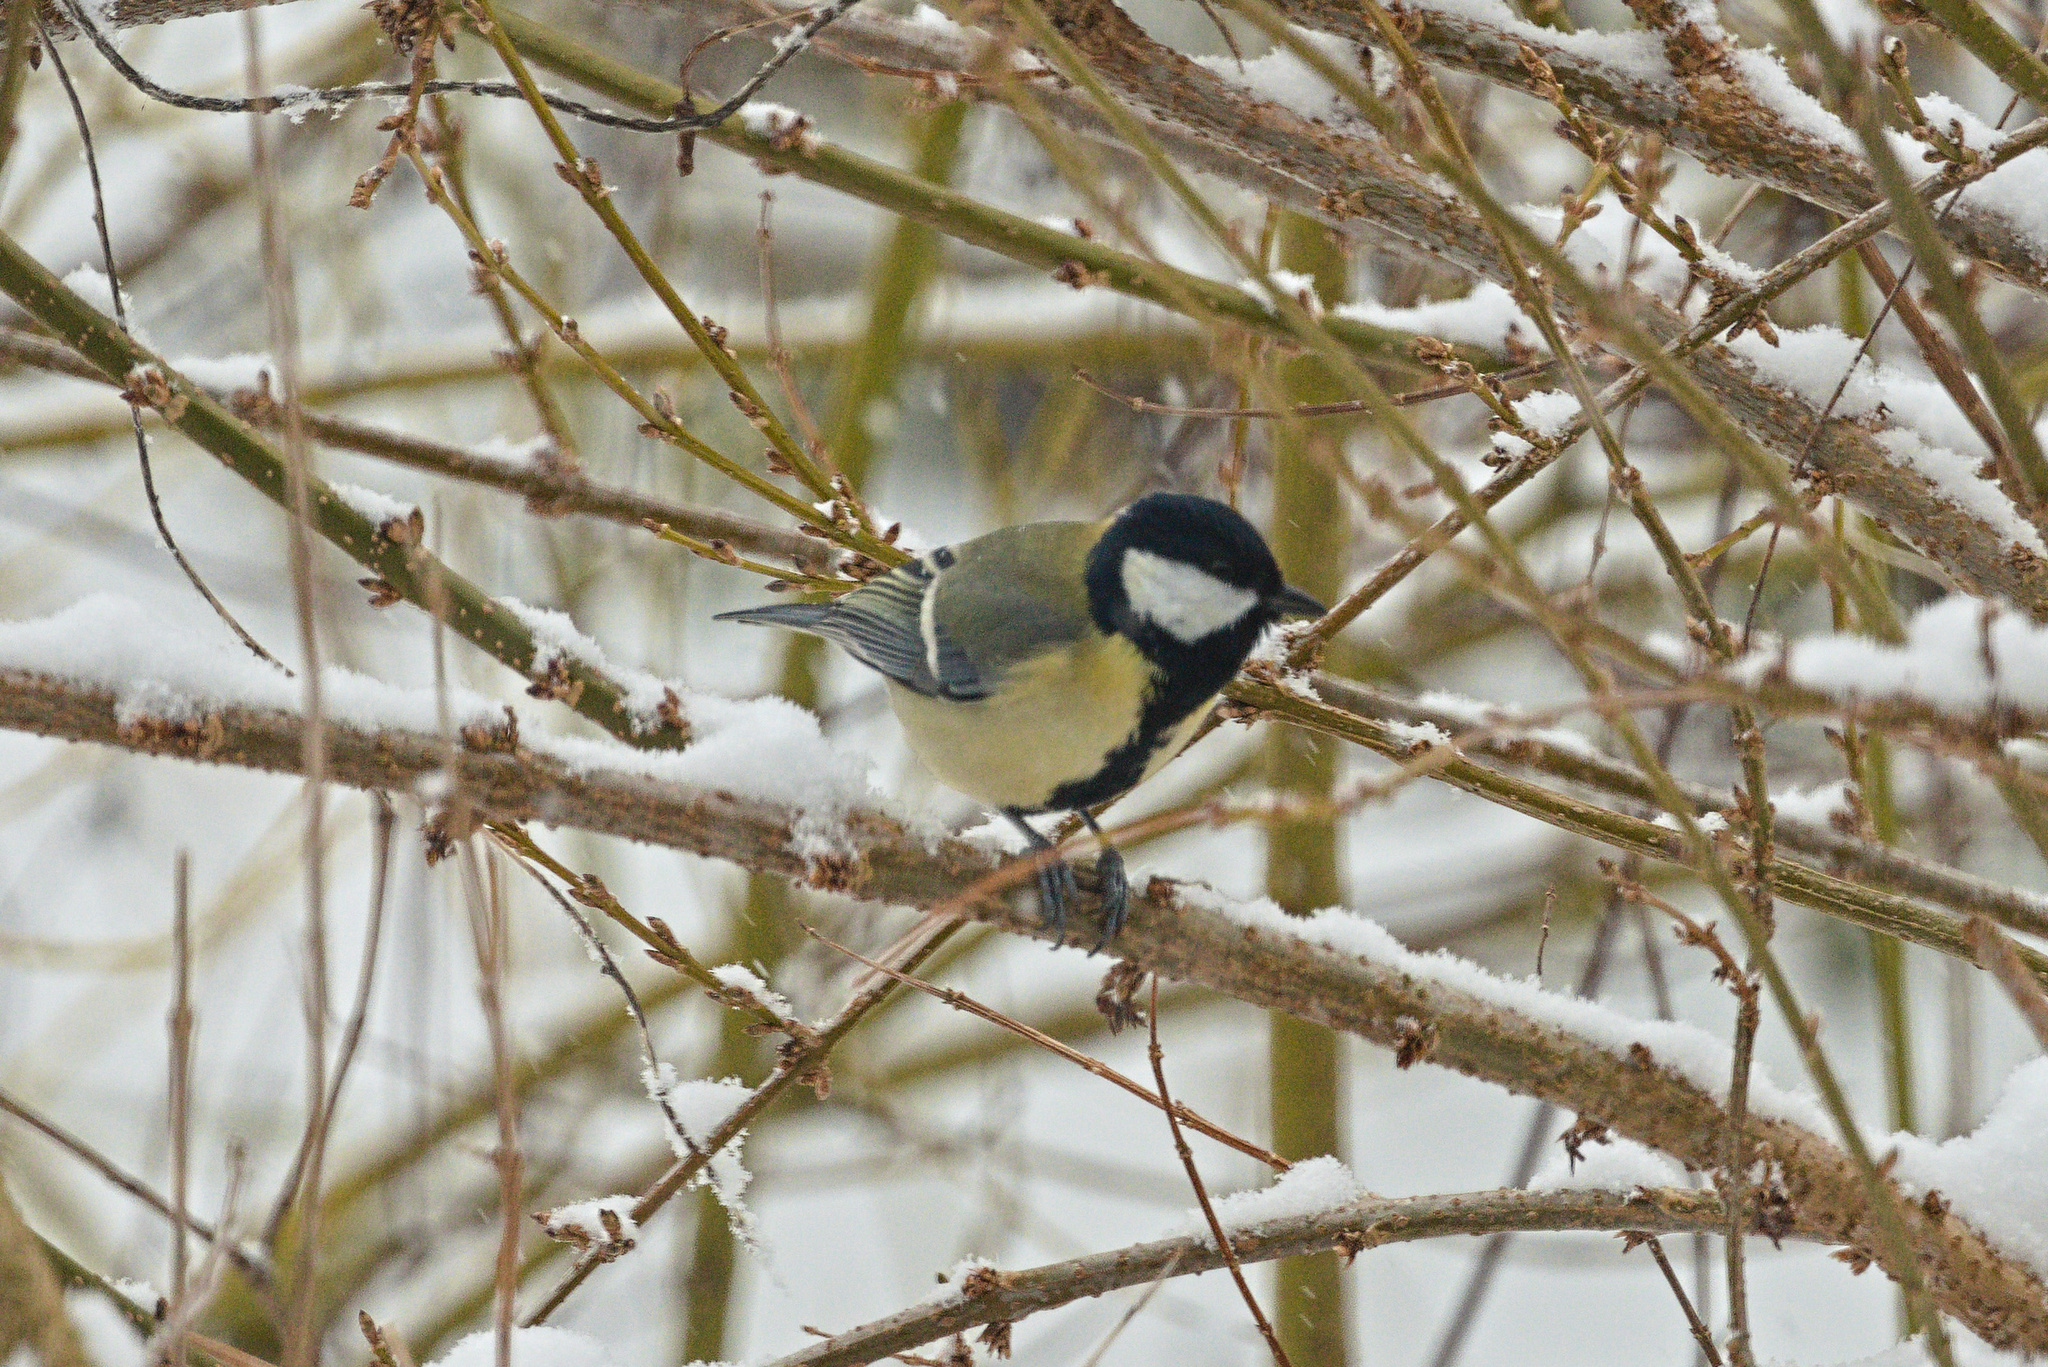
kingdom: Animalia
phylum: Chordata
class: Aves
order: Passeriformes
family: Paridae
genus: Parus
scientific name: Parus major
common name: Great tit
